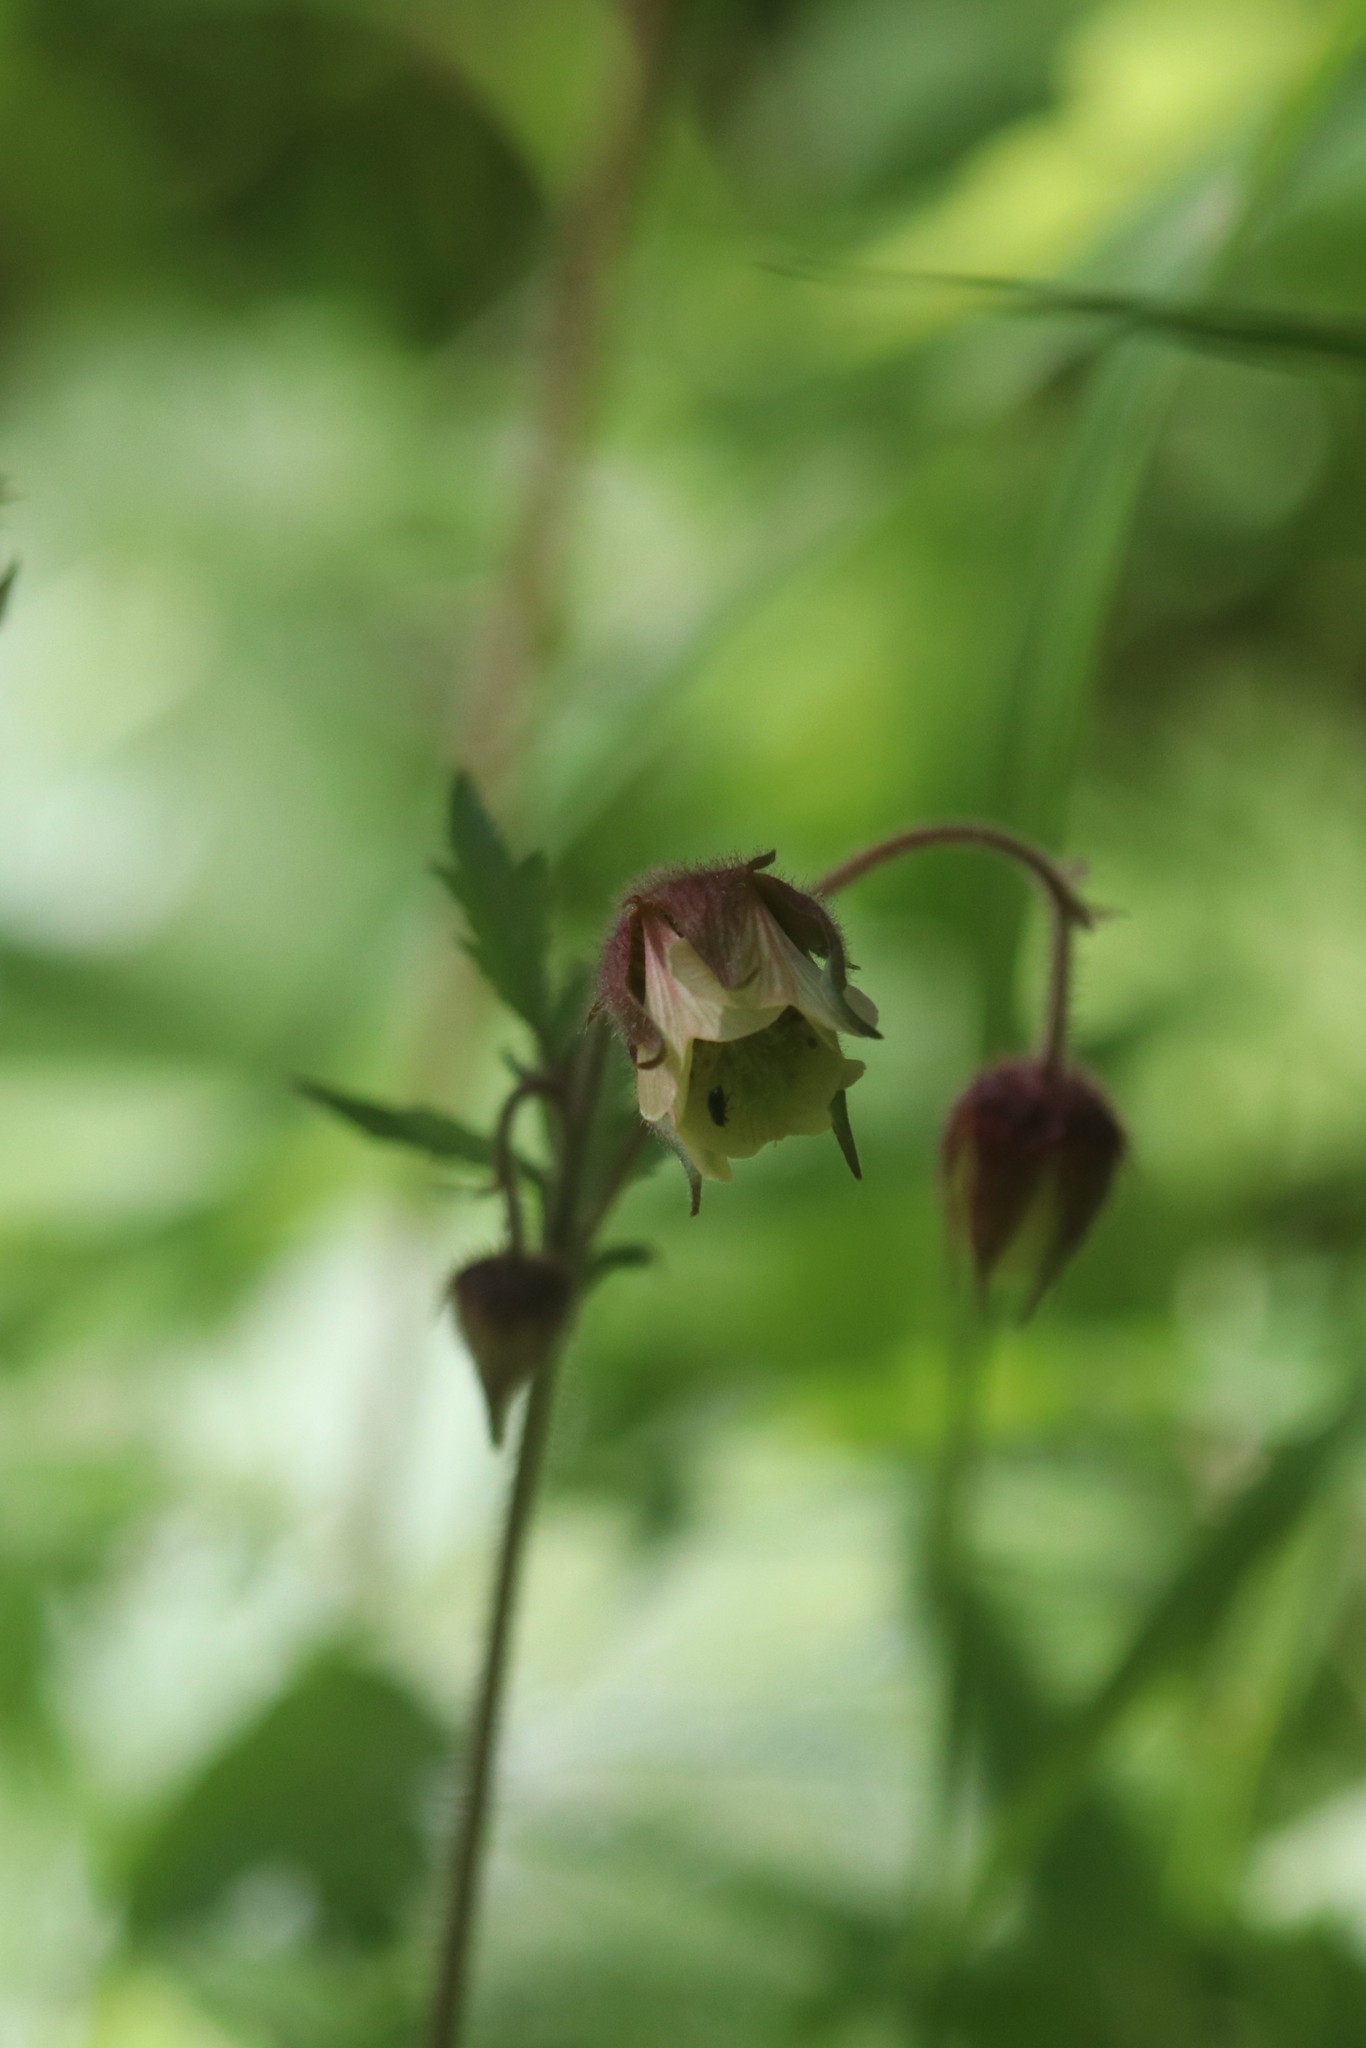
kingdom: Plantae
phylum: Tracheophyta
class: Magnoliopsida
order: Rosales
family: Rosaceae
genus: Geum
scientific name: Geum rivale
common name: Water avens
